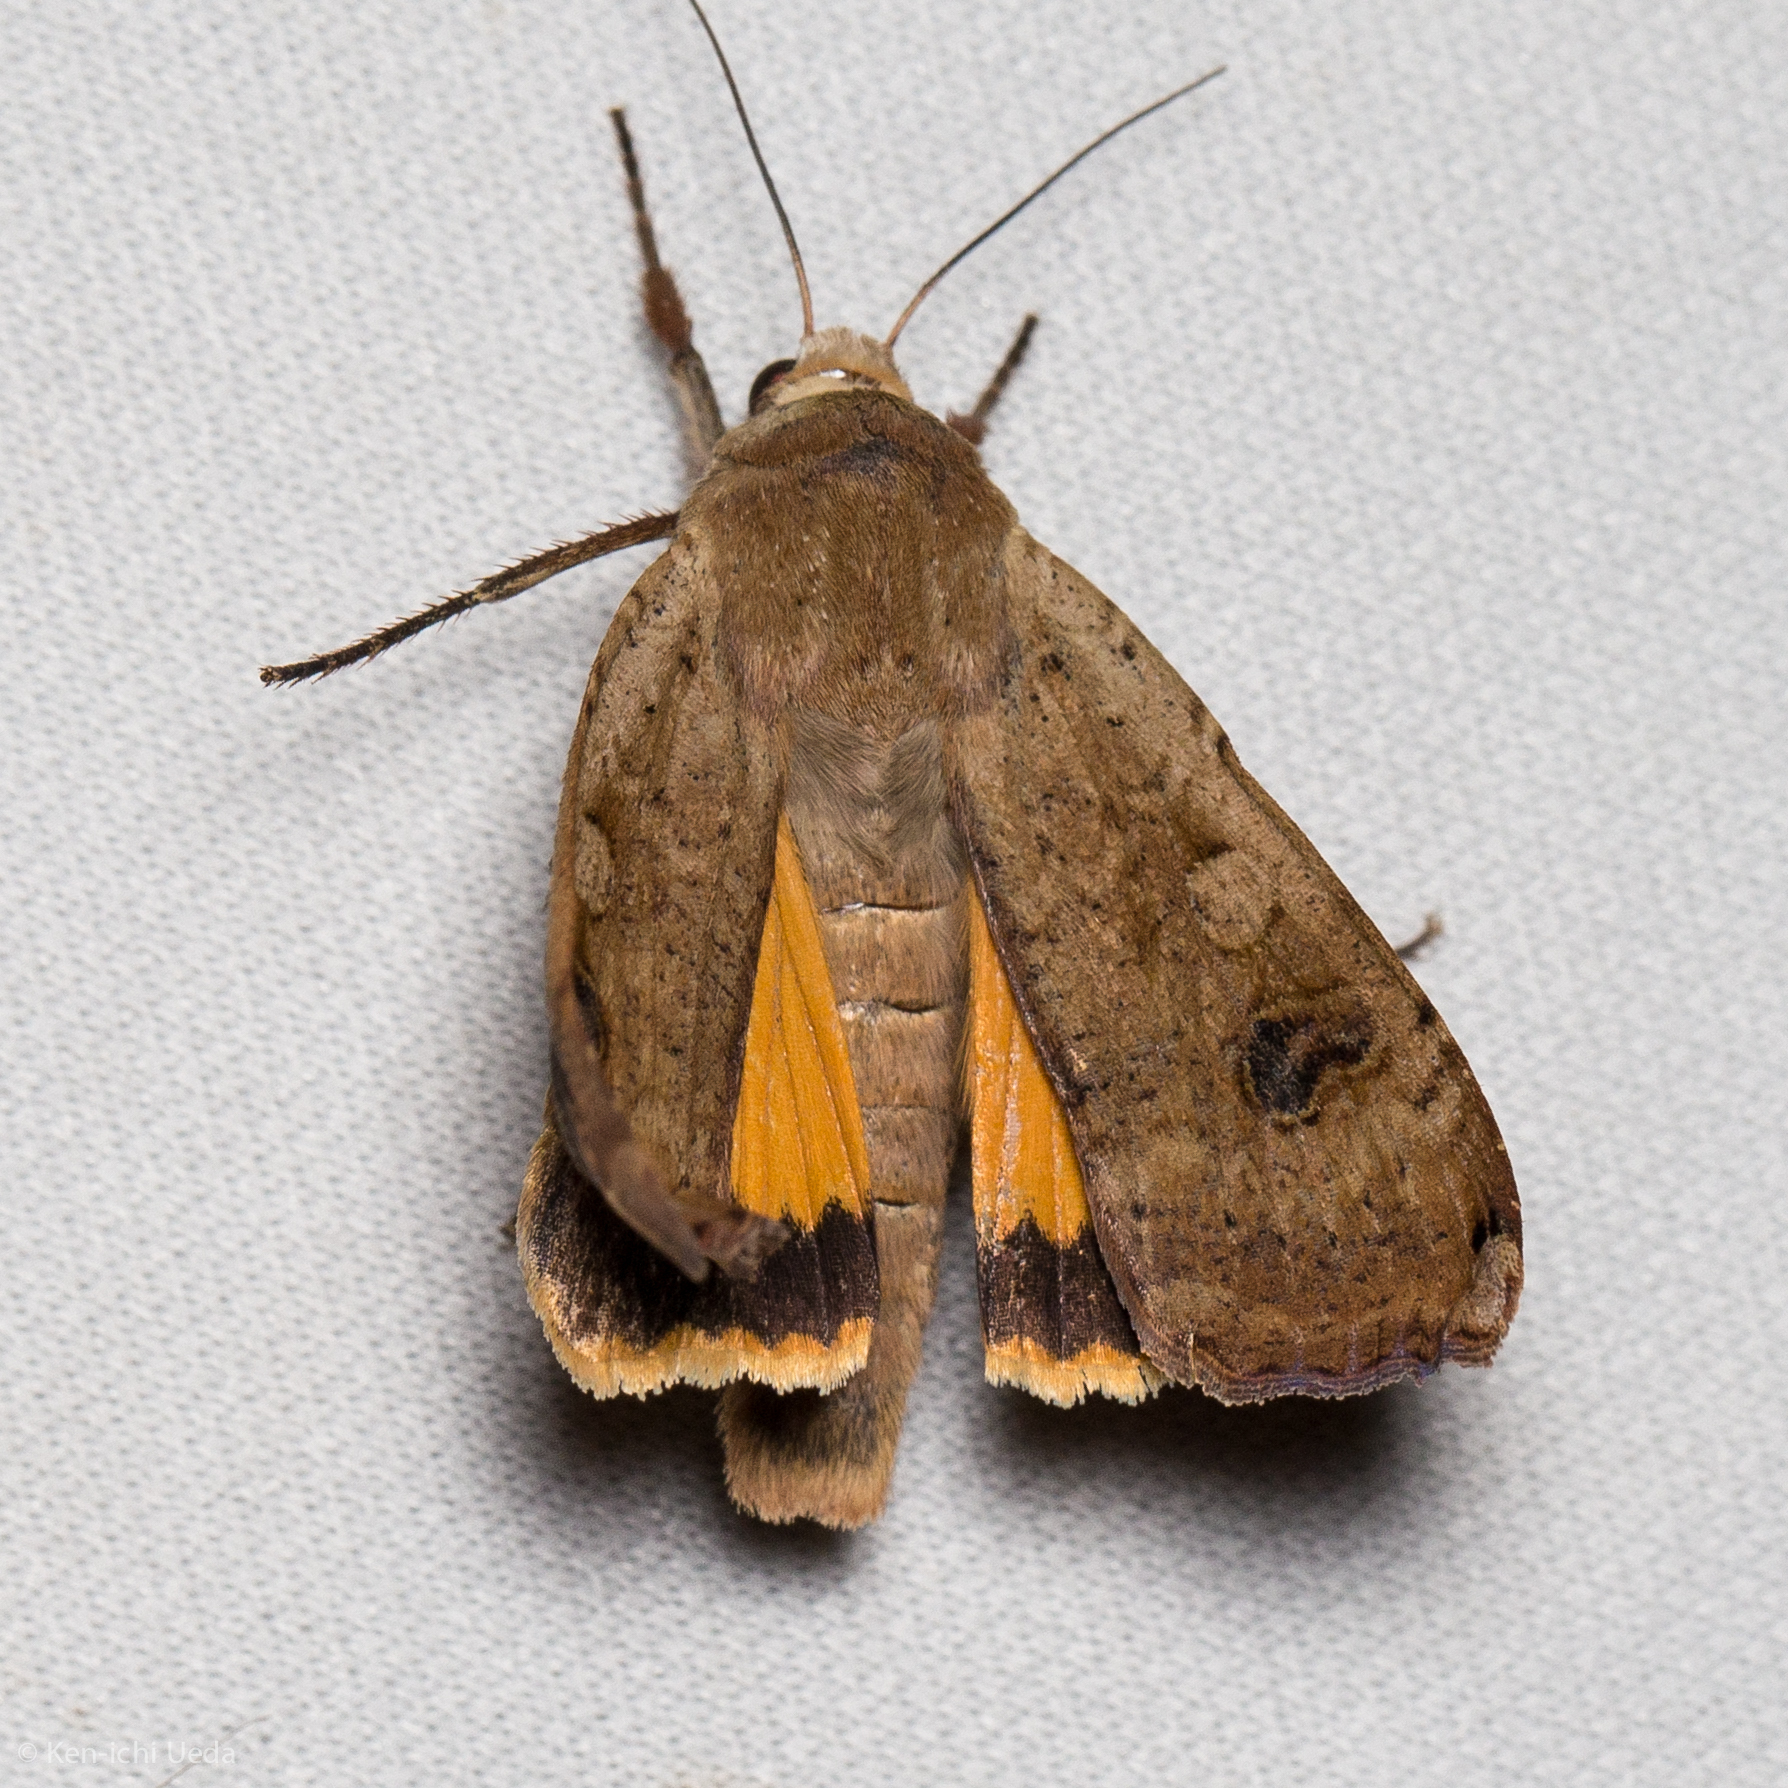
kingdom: Animalia
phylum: Arthropoda
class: Insecta
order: Lepidoptera
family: Noctuidae
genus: Noctua
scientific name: Noctua pronuba
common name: Large yellow underwing
